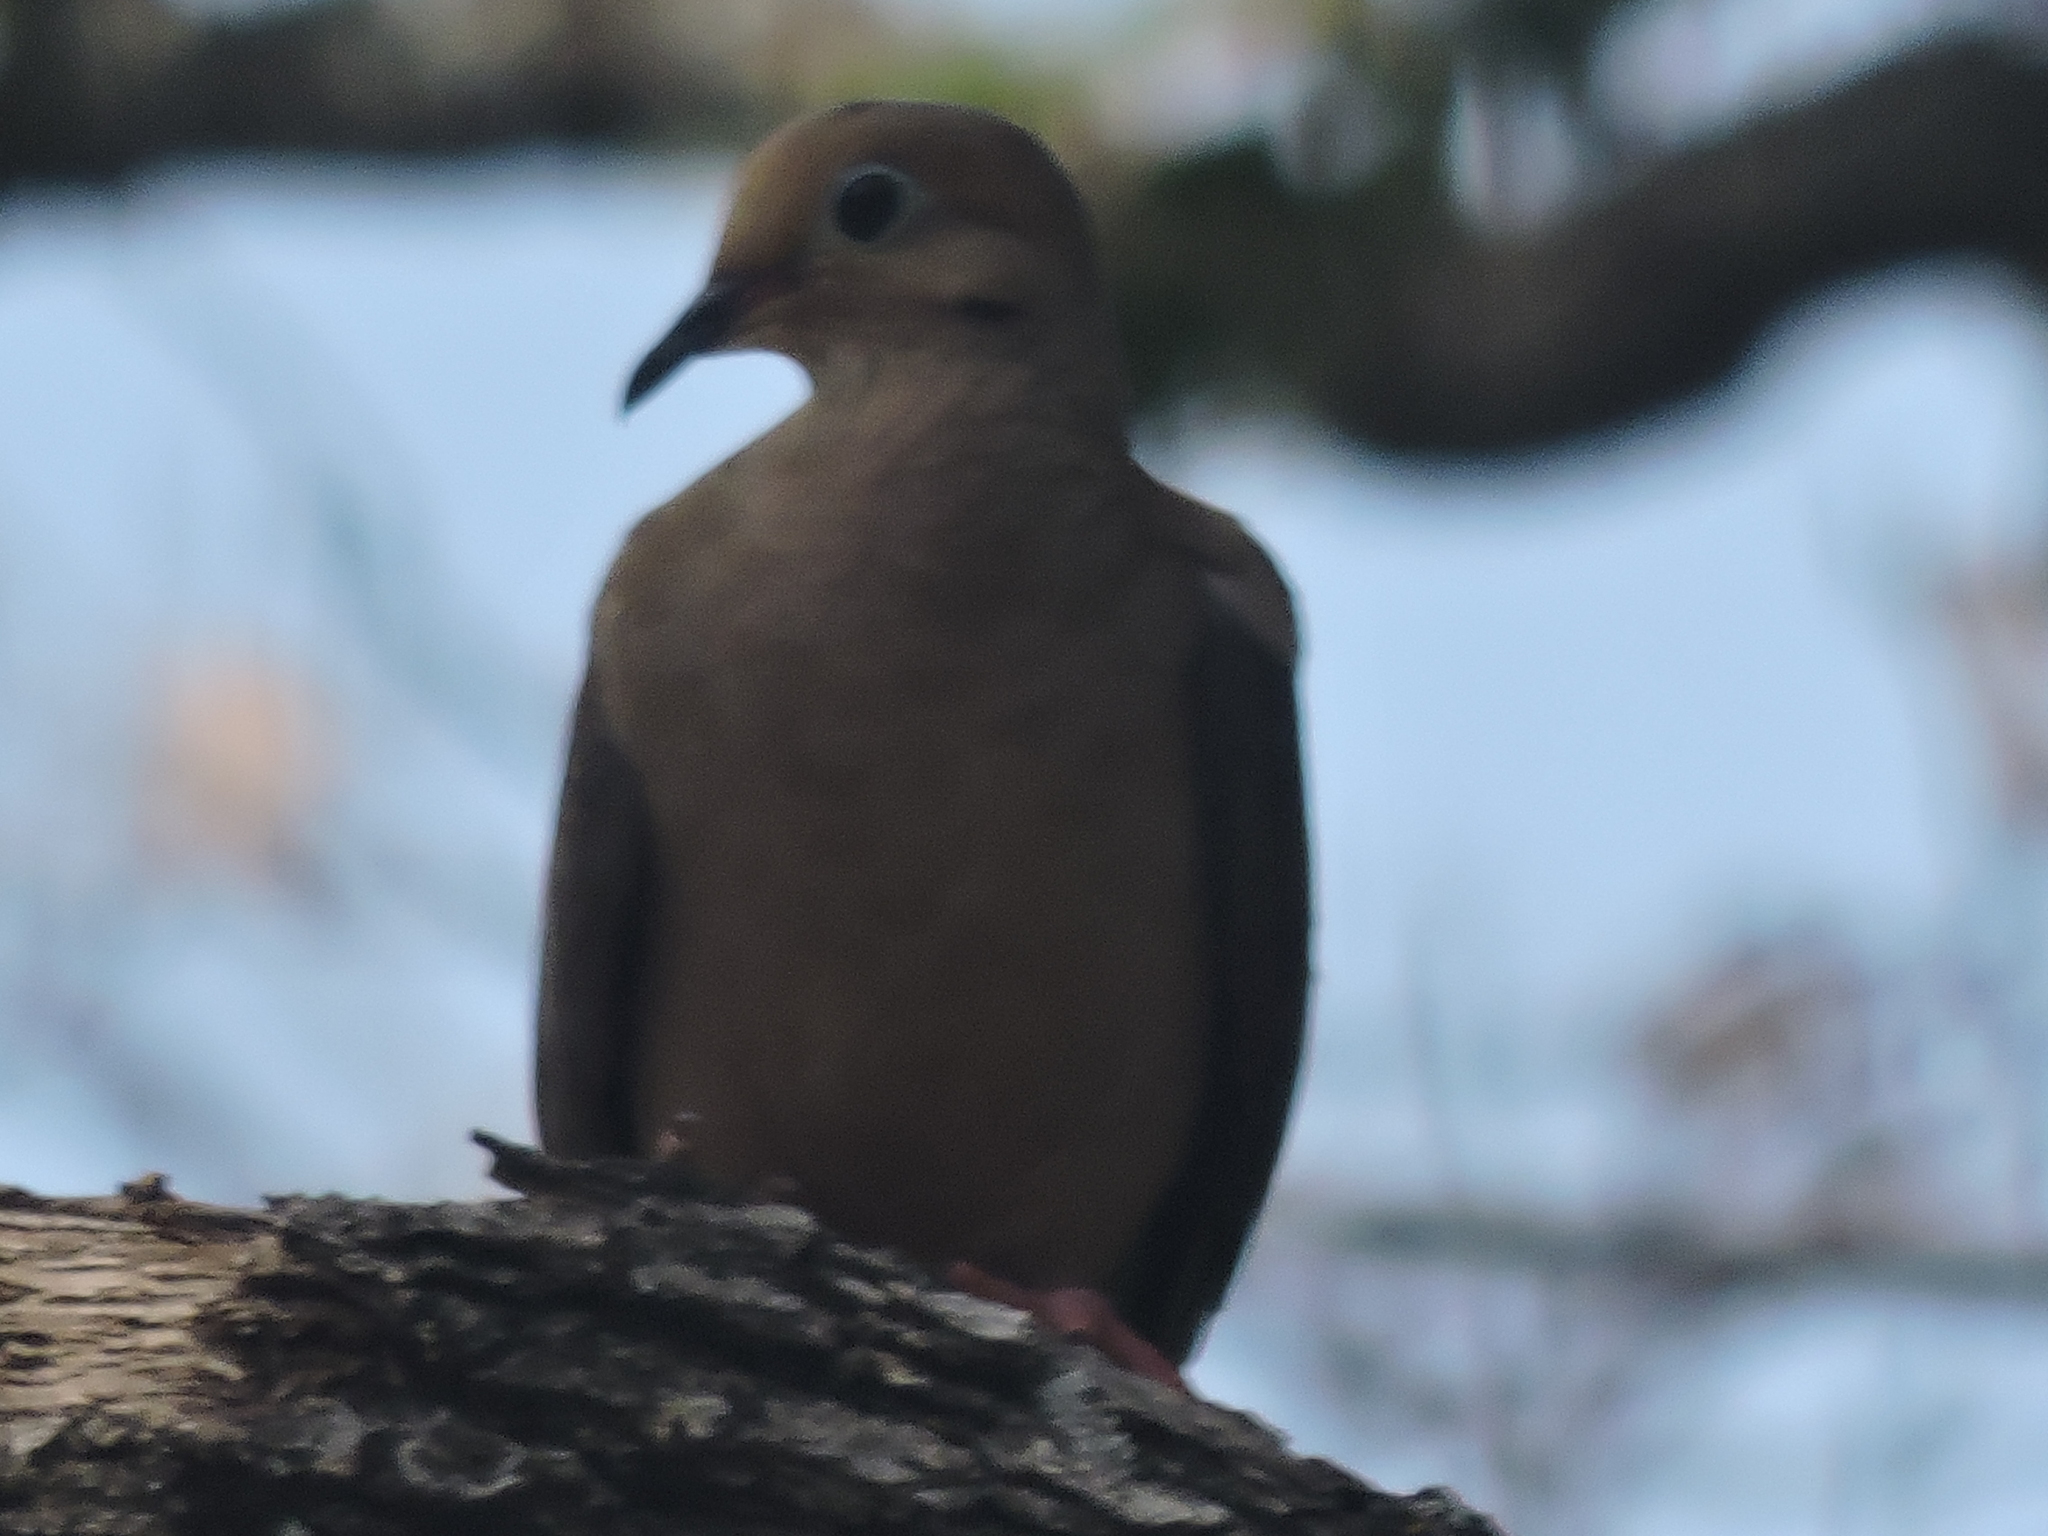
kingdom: Animalia
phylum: Chordata
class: Aves
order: Columbiformes
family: Columbidae
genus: Zenaida
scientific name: Zenaida macroura
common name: Mourning dove
